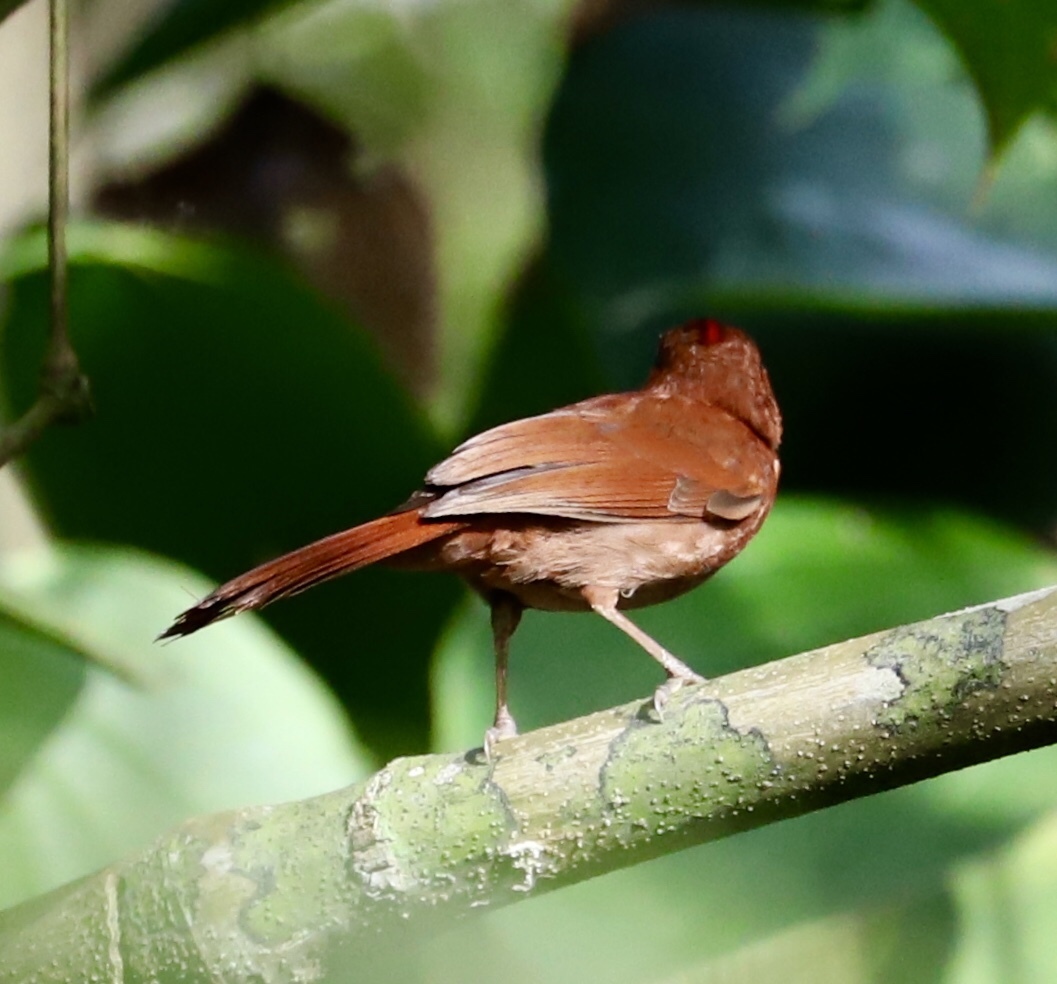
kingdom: Animalia
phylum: Chordata
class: Aves
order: Passeriformes
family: Cardinalidae
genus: Habia
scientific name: Habia rubica
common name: Red-crowned ant-tanager
